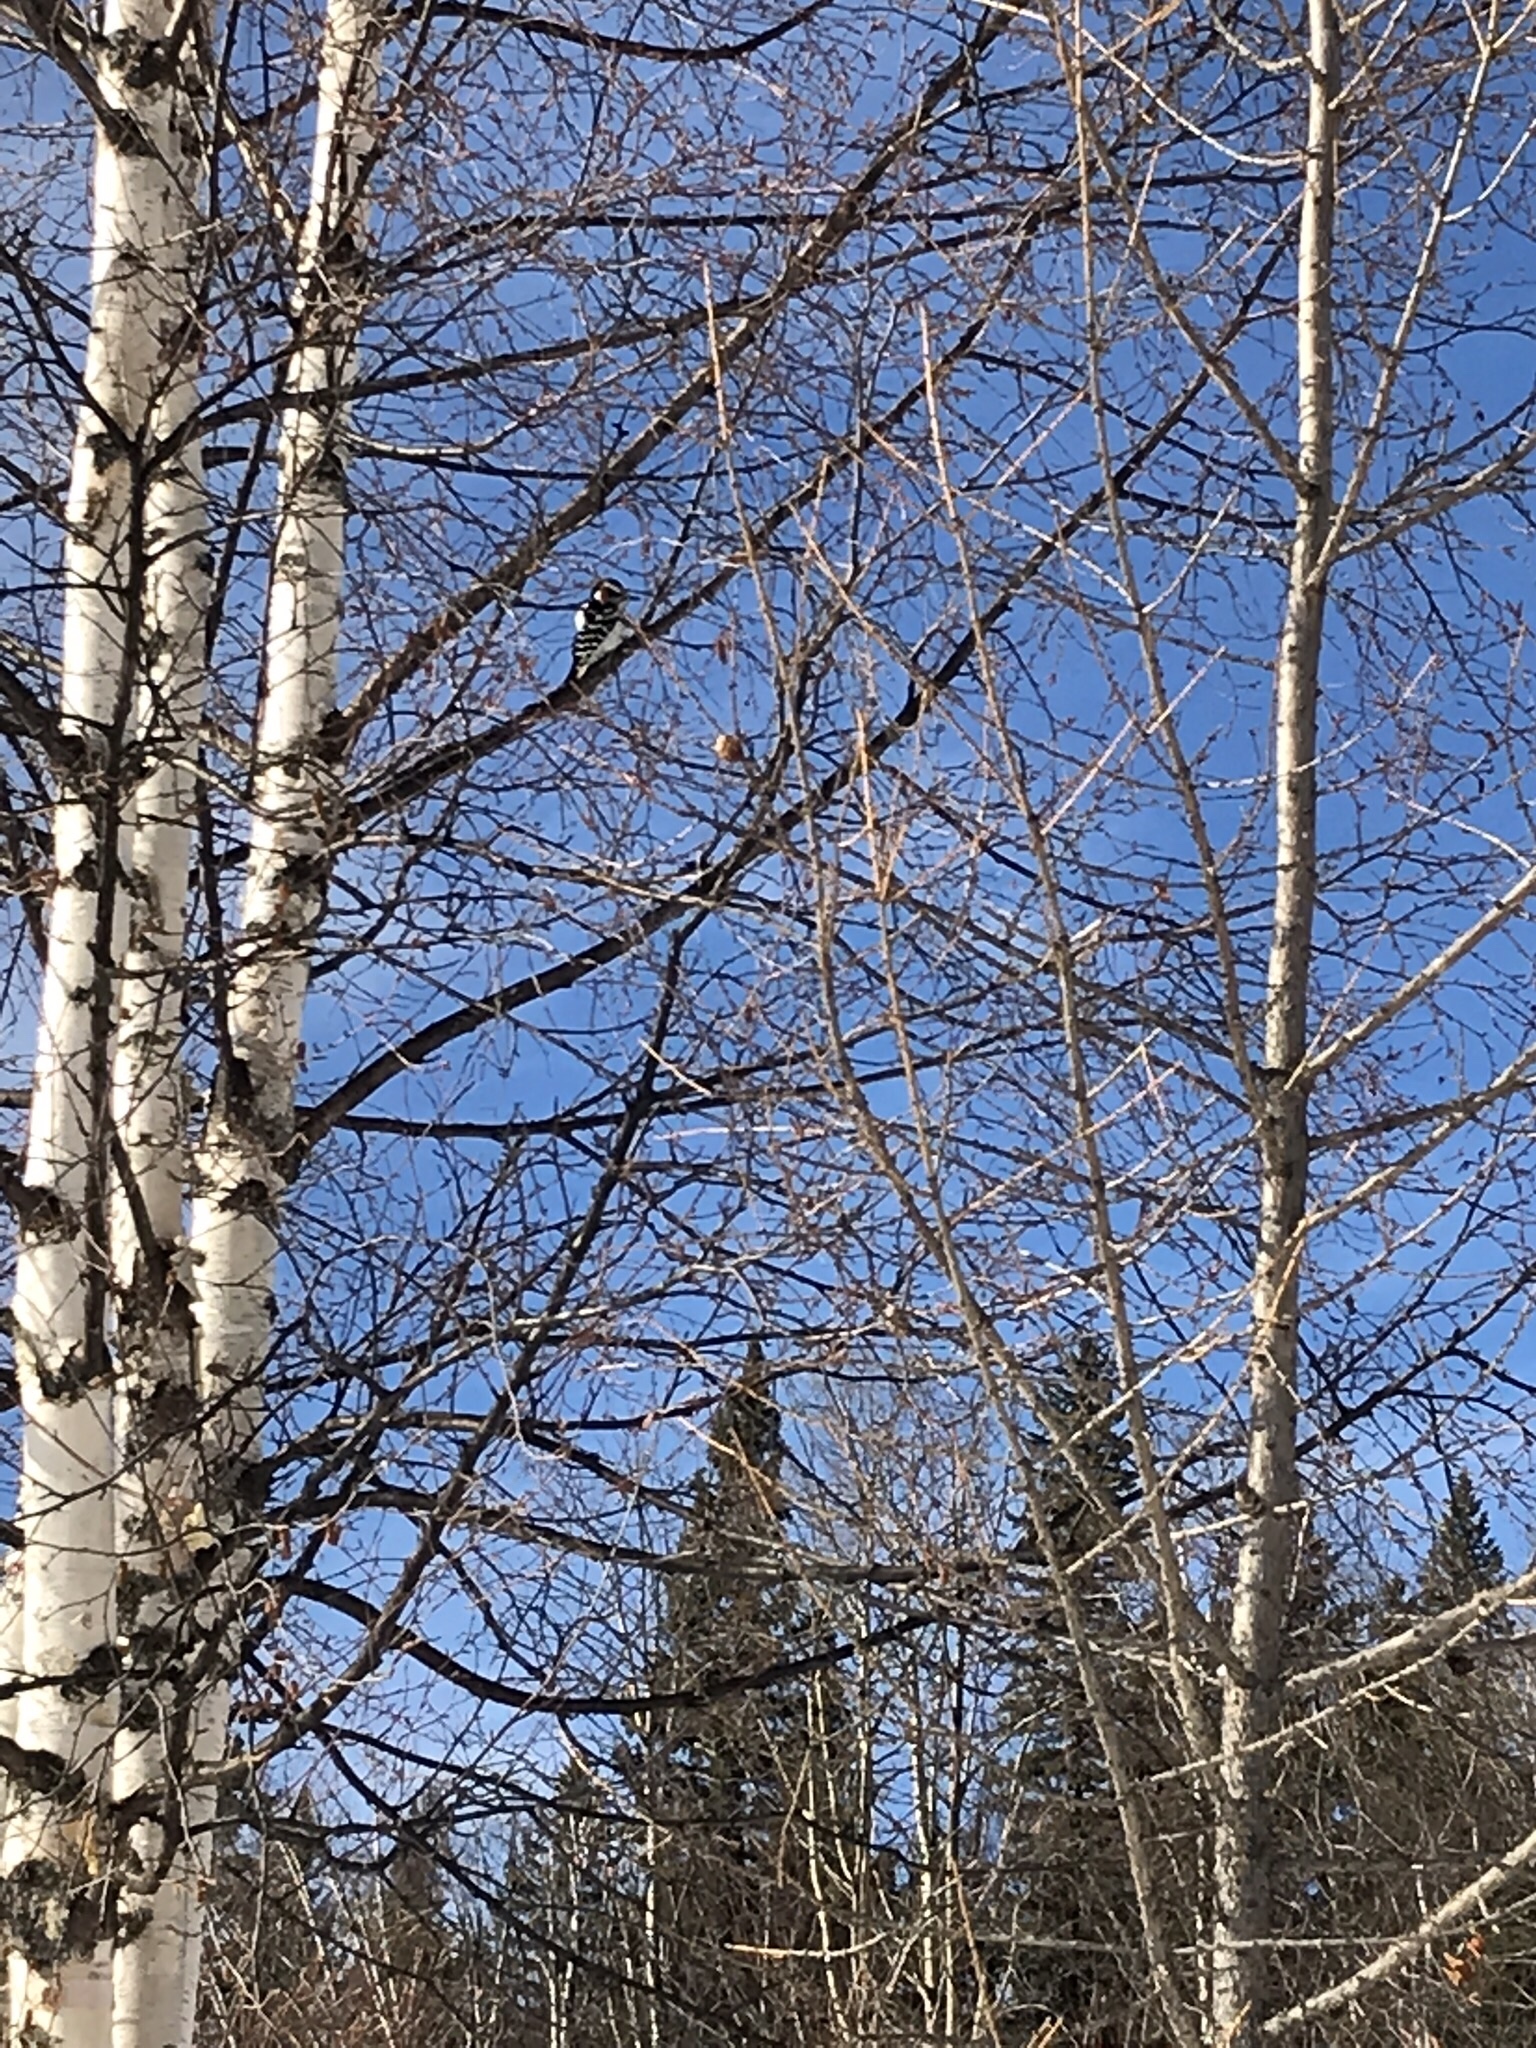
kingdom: Animalia
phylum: Chordata
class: Aves
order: Piciformes
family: Picidae
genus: Leuconotopicus
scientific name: Leuconotopicus villosus
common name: Hairy woodpecker
